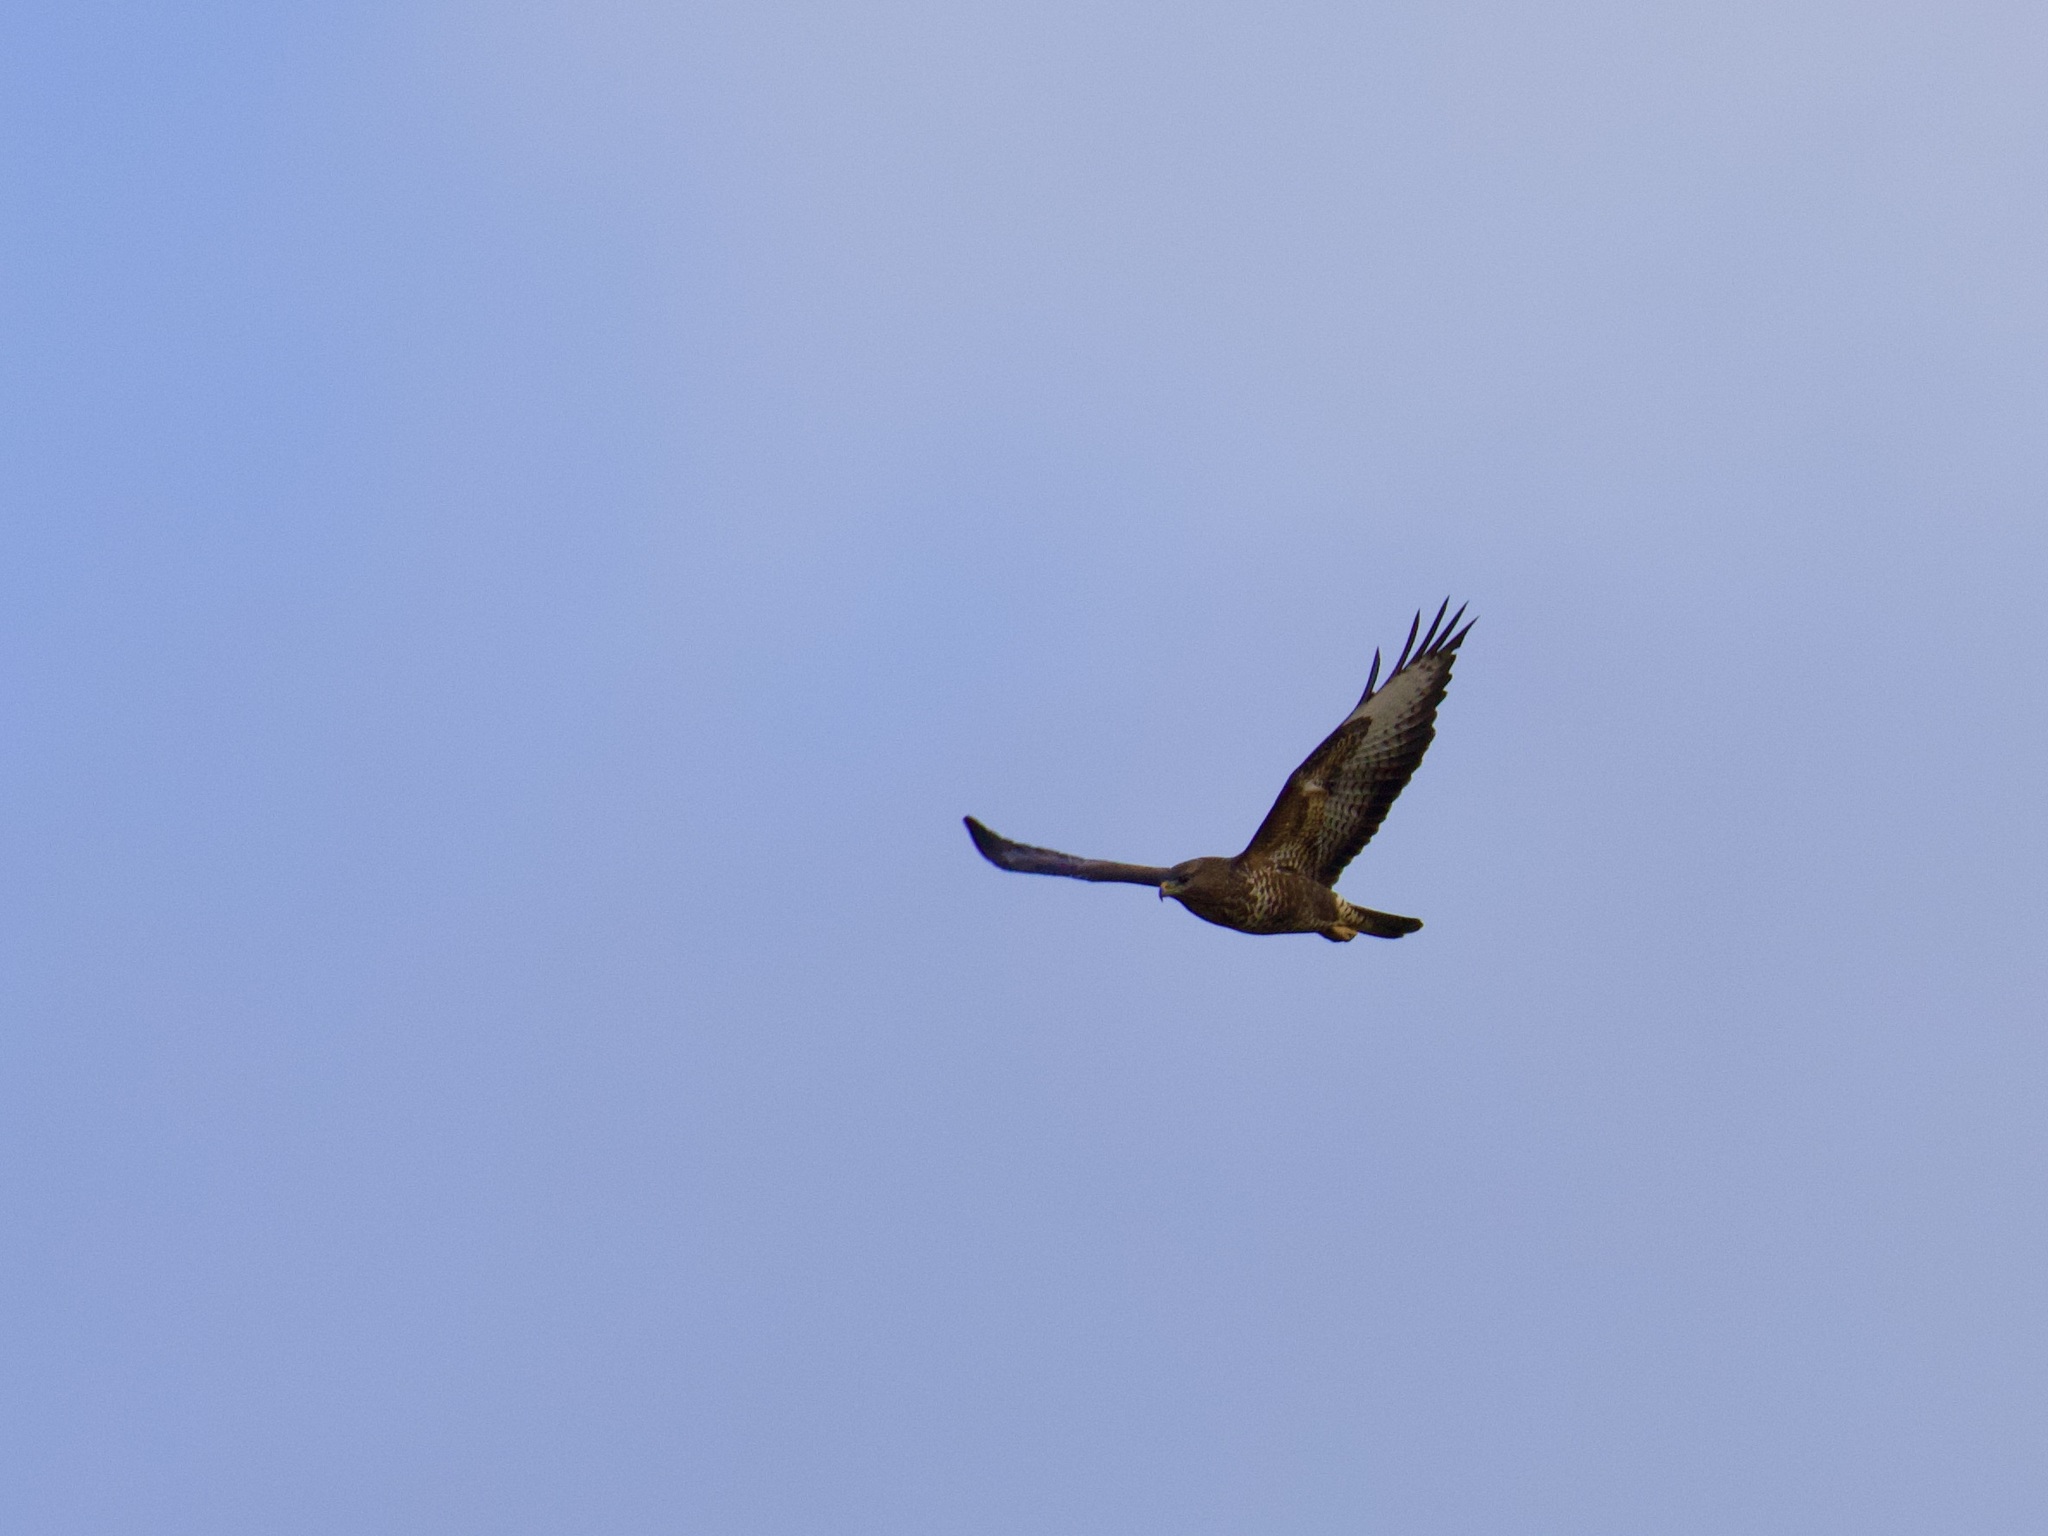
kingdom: Animalia
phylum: Chordata
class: Aves
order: Accipitriformes
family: Accipitridae
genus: Buteo
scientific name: Buteo buteo
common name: Common buzzard
